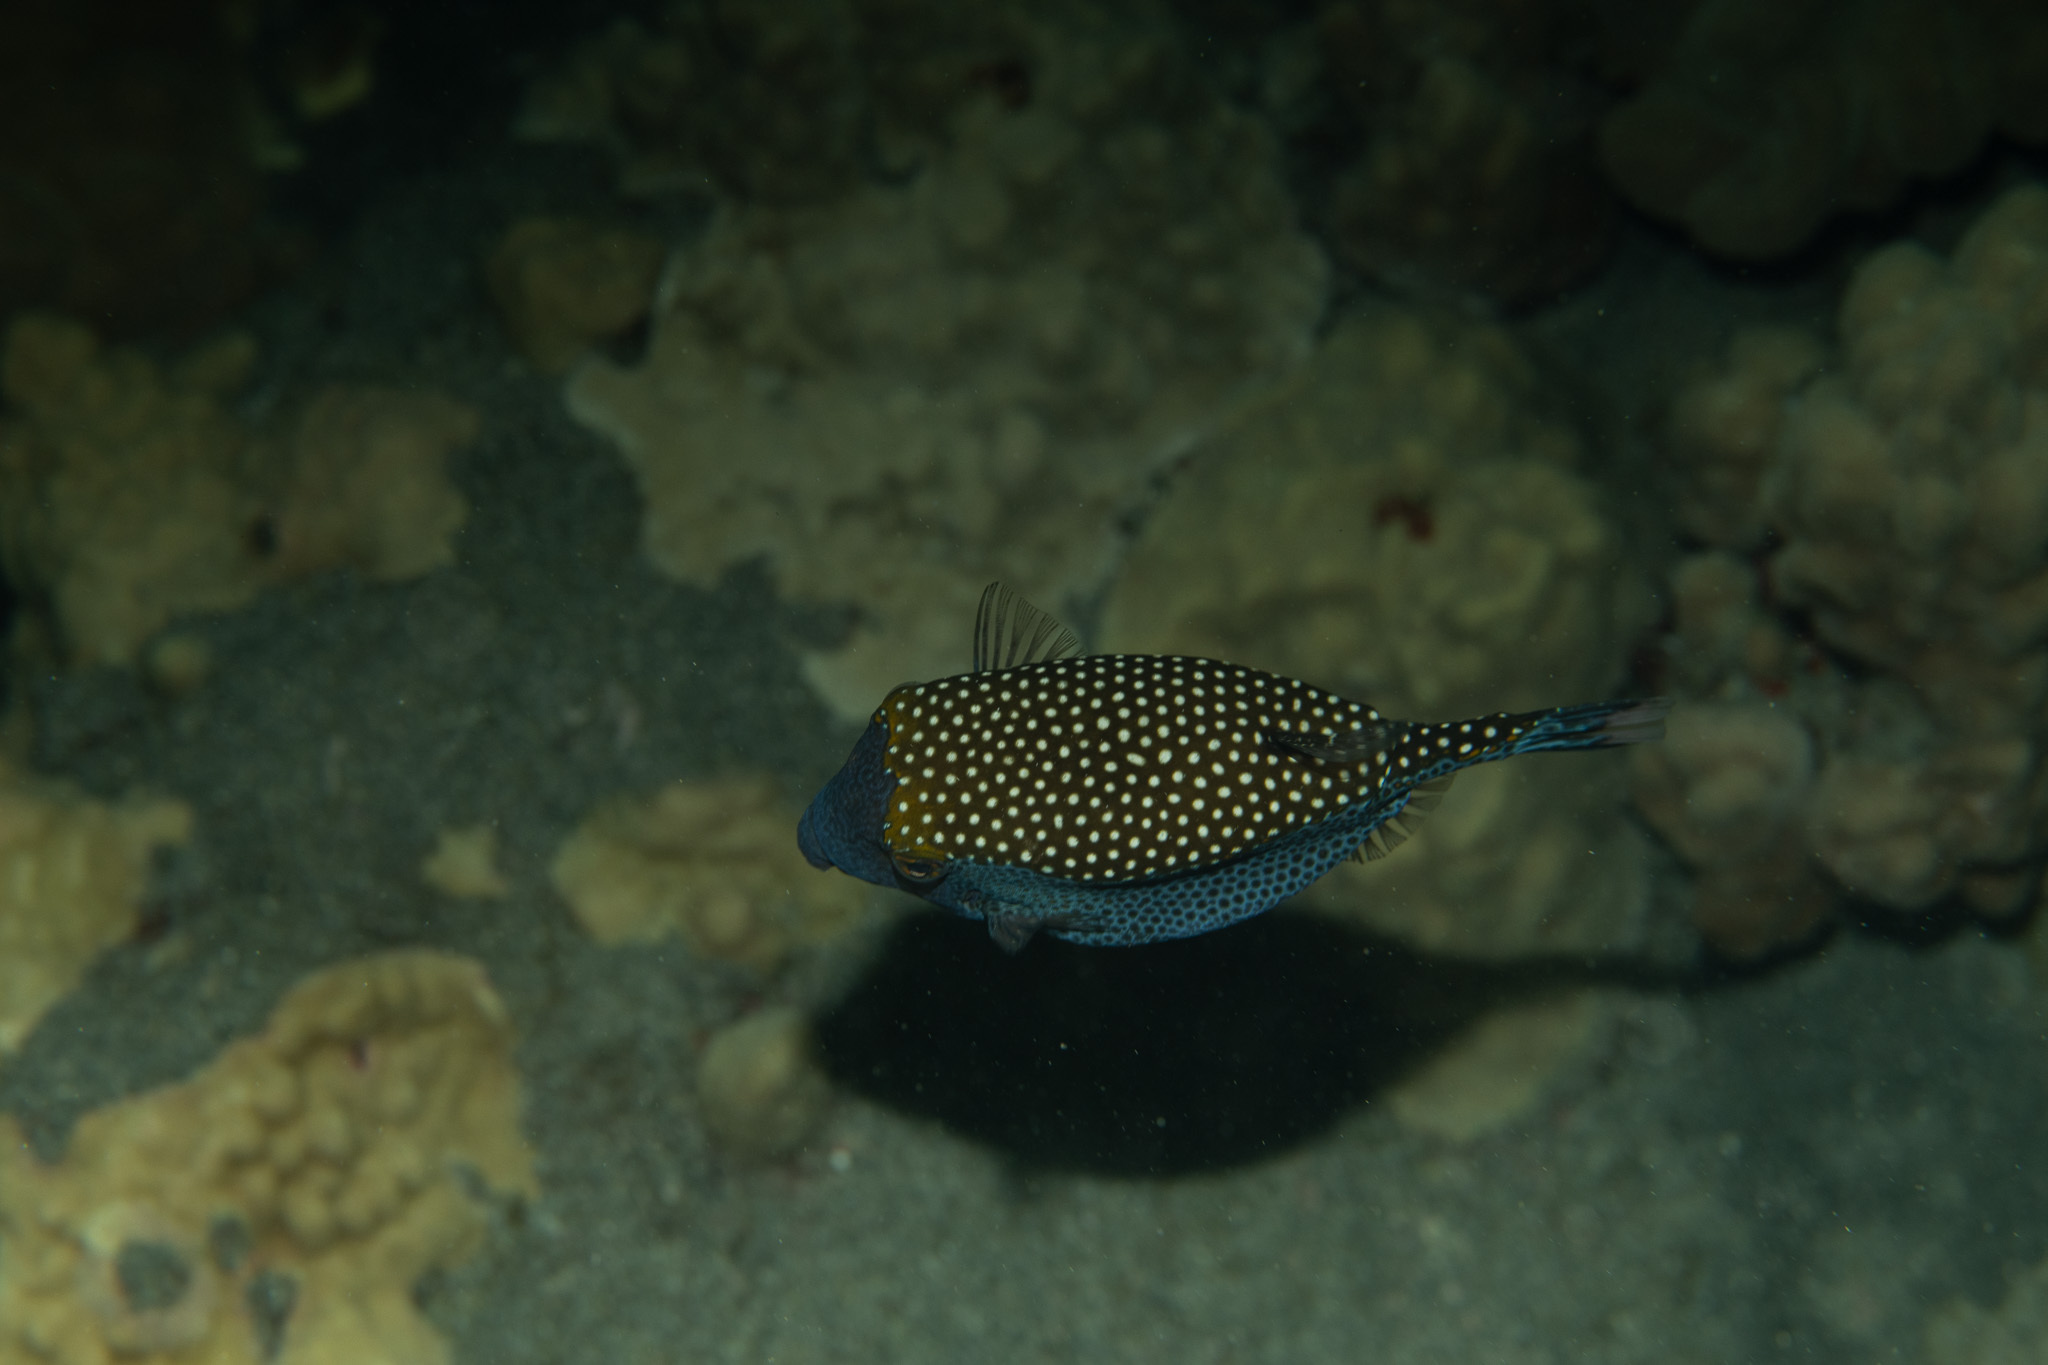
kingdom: Animalia
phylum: Chordata
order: Tetraodontiformes
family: Ostraciidae
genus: Ostracion
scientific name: Ostracion meleagris
